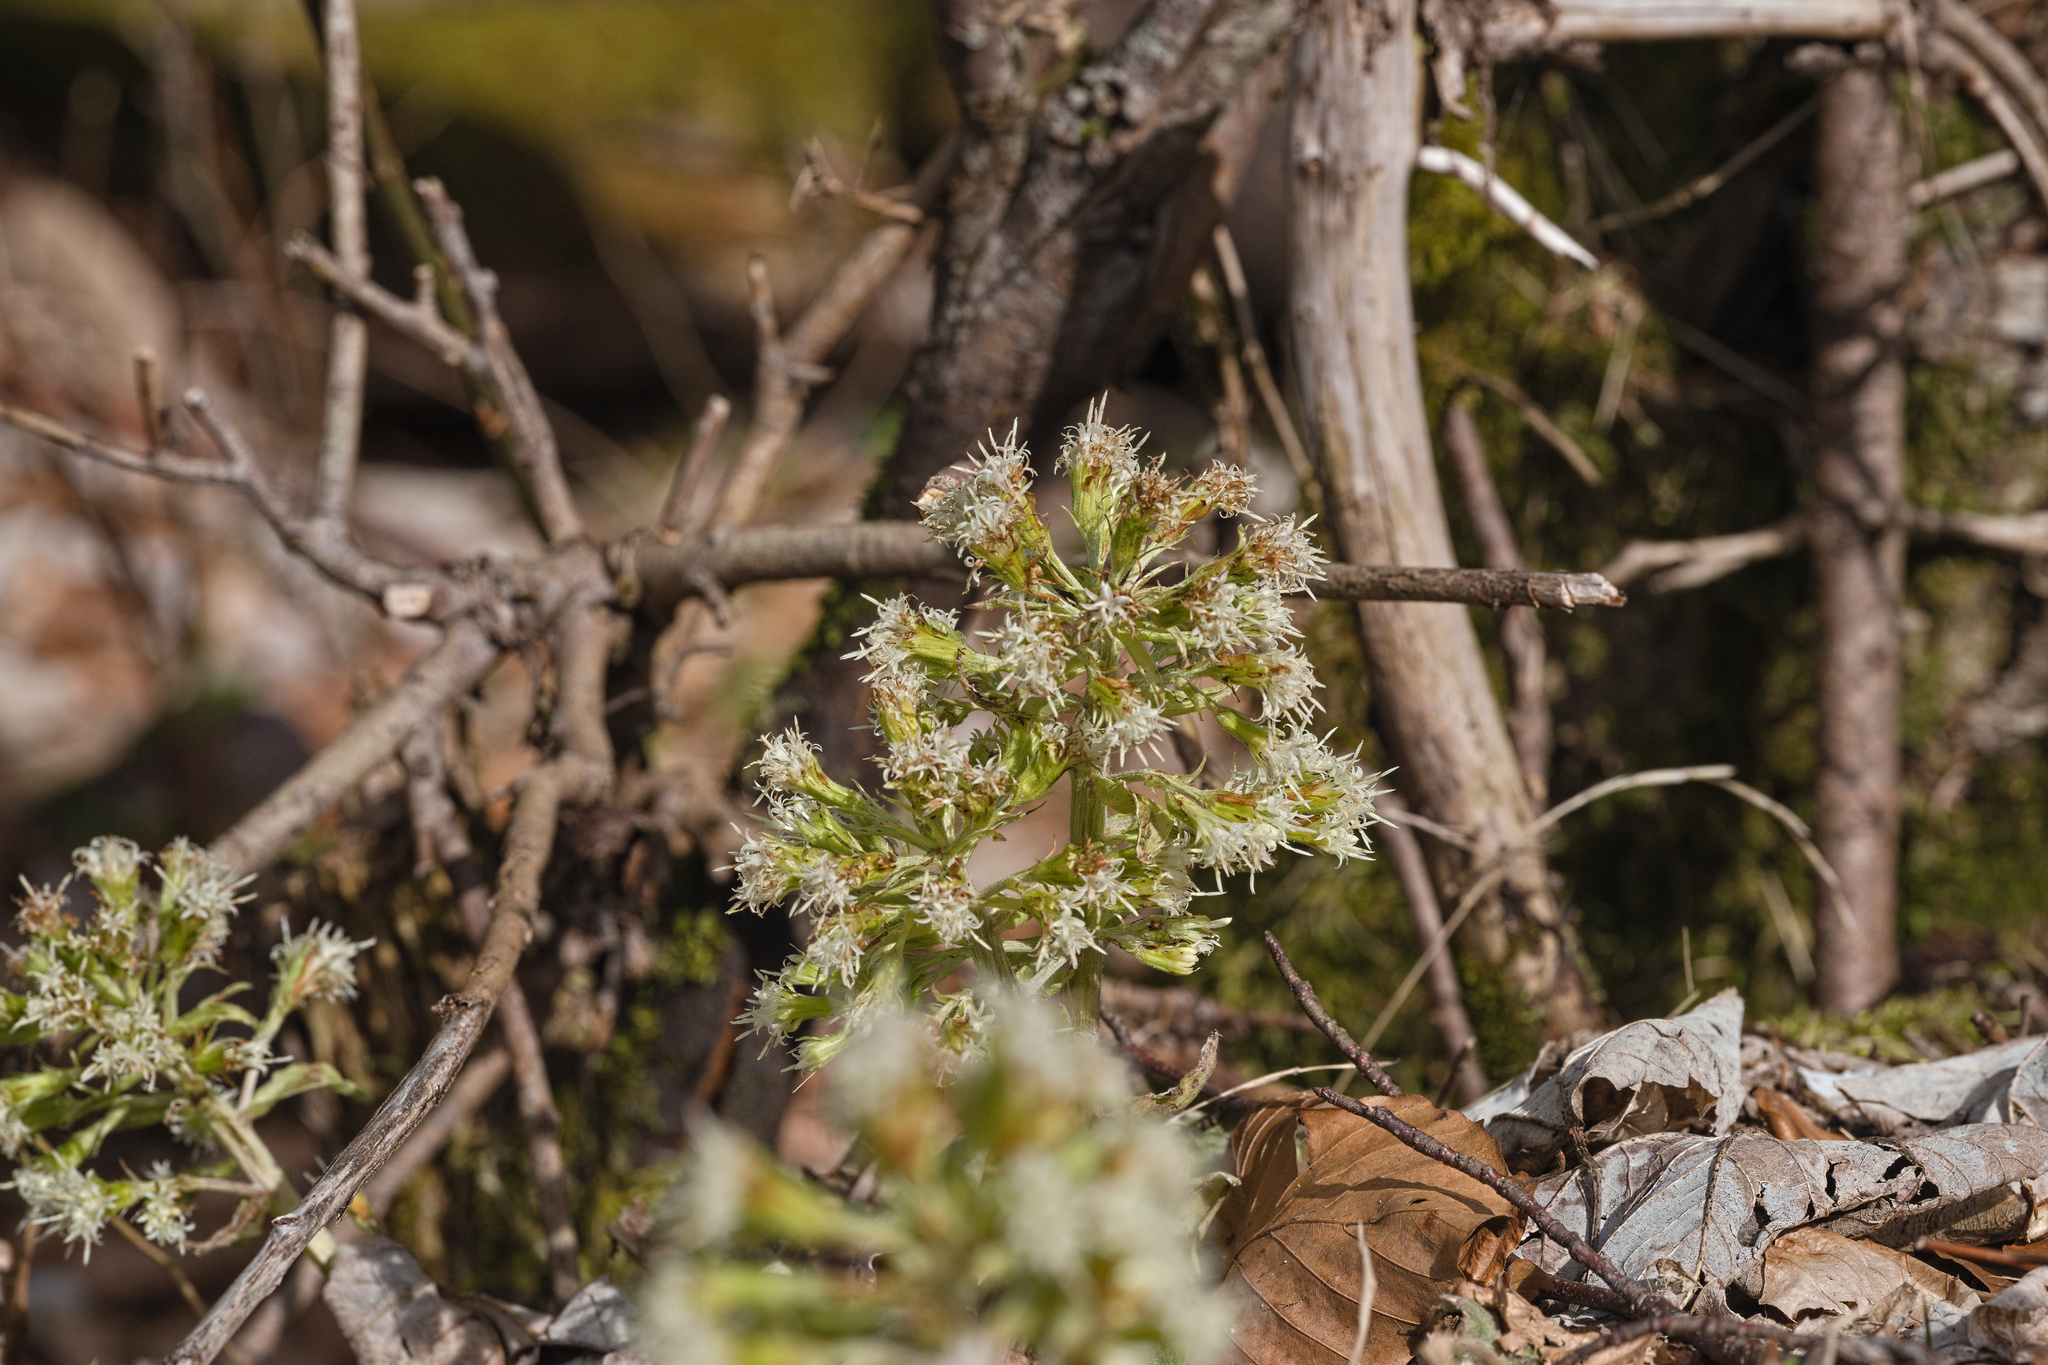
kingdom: Plantae
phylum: Tracheophyta
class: Magnoliopsida
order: Asterales
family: Asteraceae
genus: Petasites
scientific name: Petasites albus
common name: White butterbur
